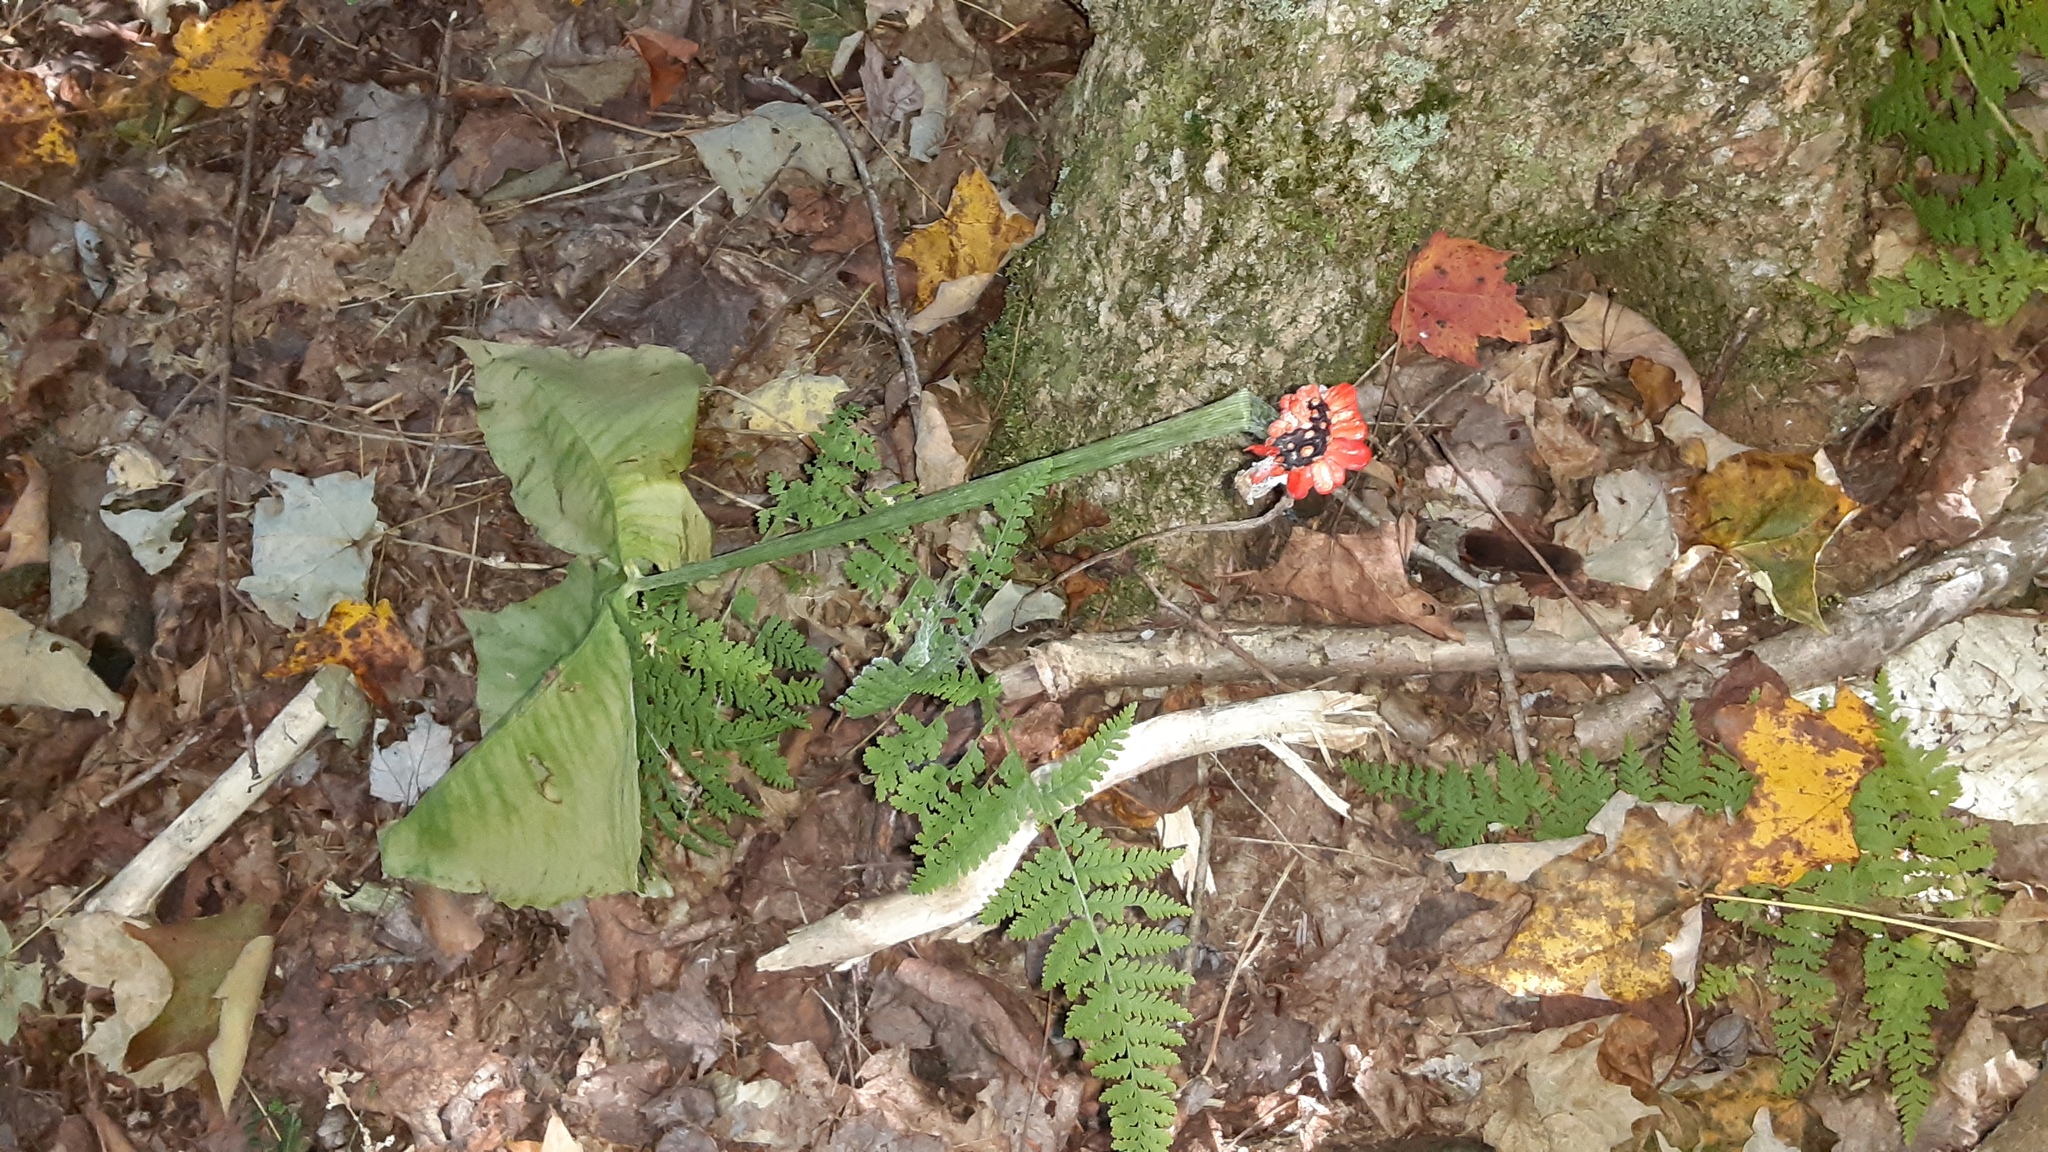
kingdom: Plantae
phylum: Tracheophyta
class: Liliopsida
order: Alismatales
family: Araceae
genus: Arisaema
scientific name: Arisaema triphyllum
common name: Jack-in-the-pulpit
